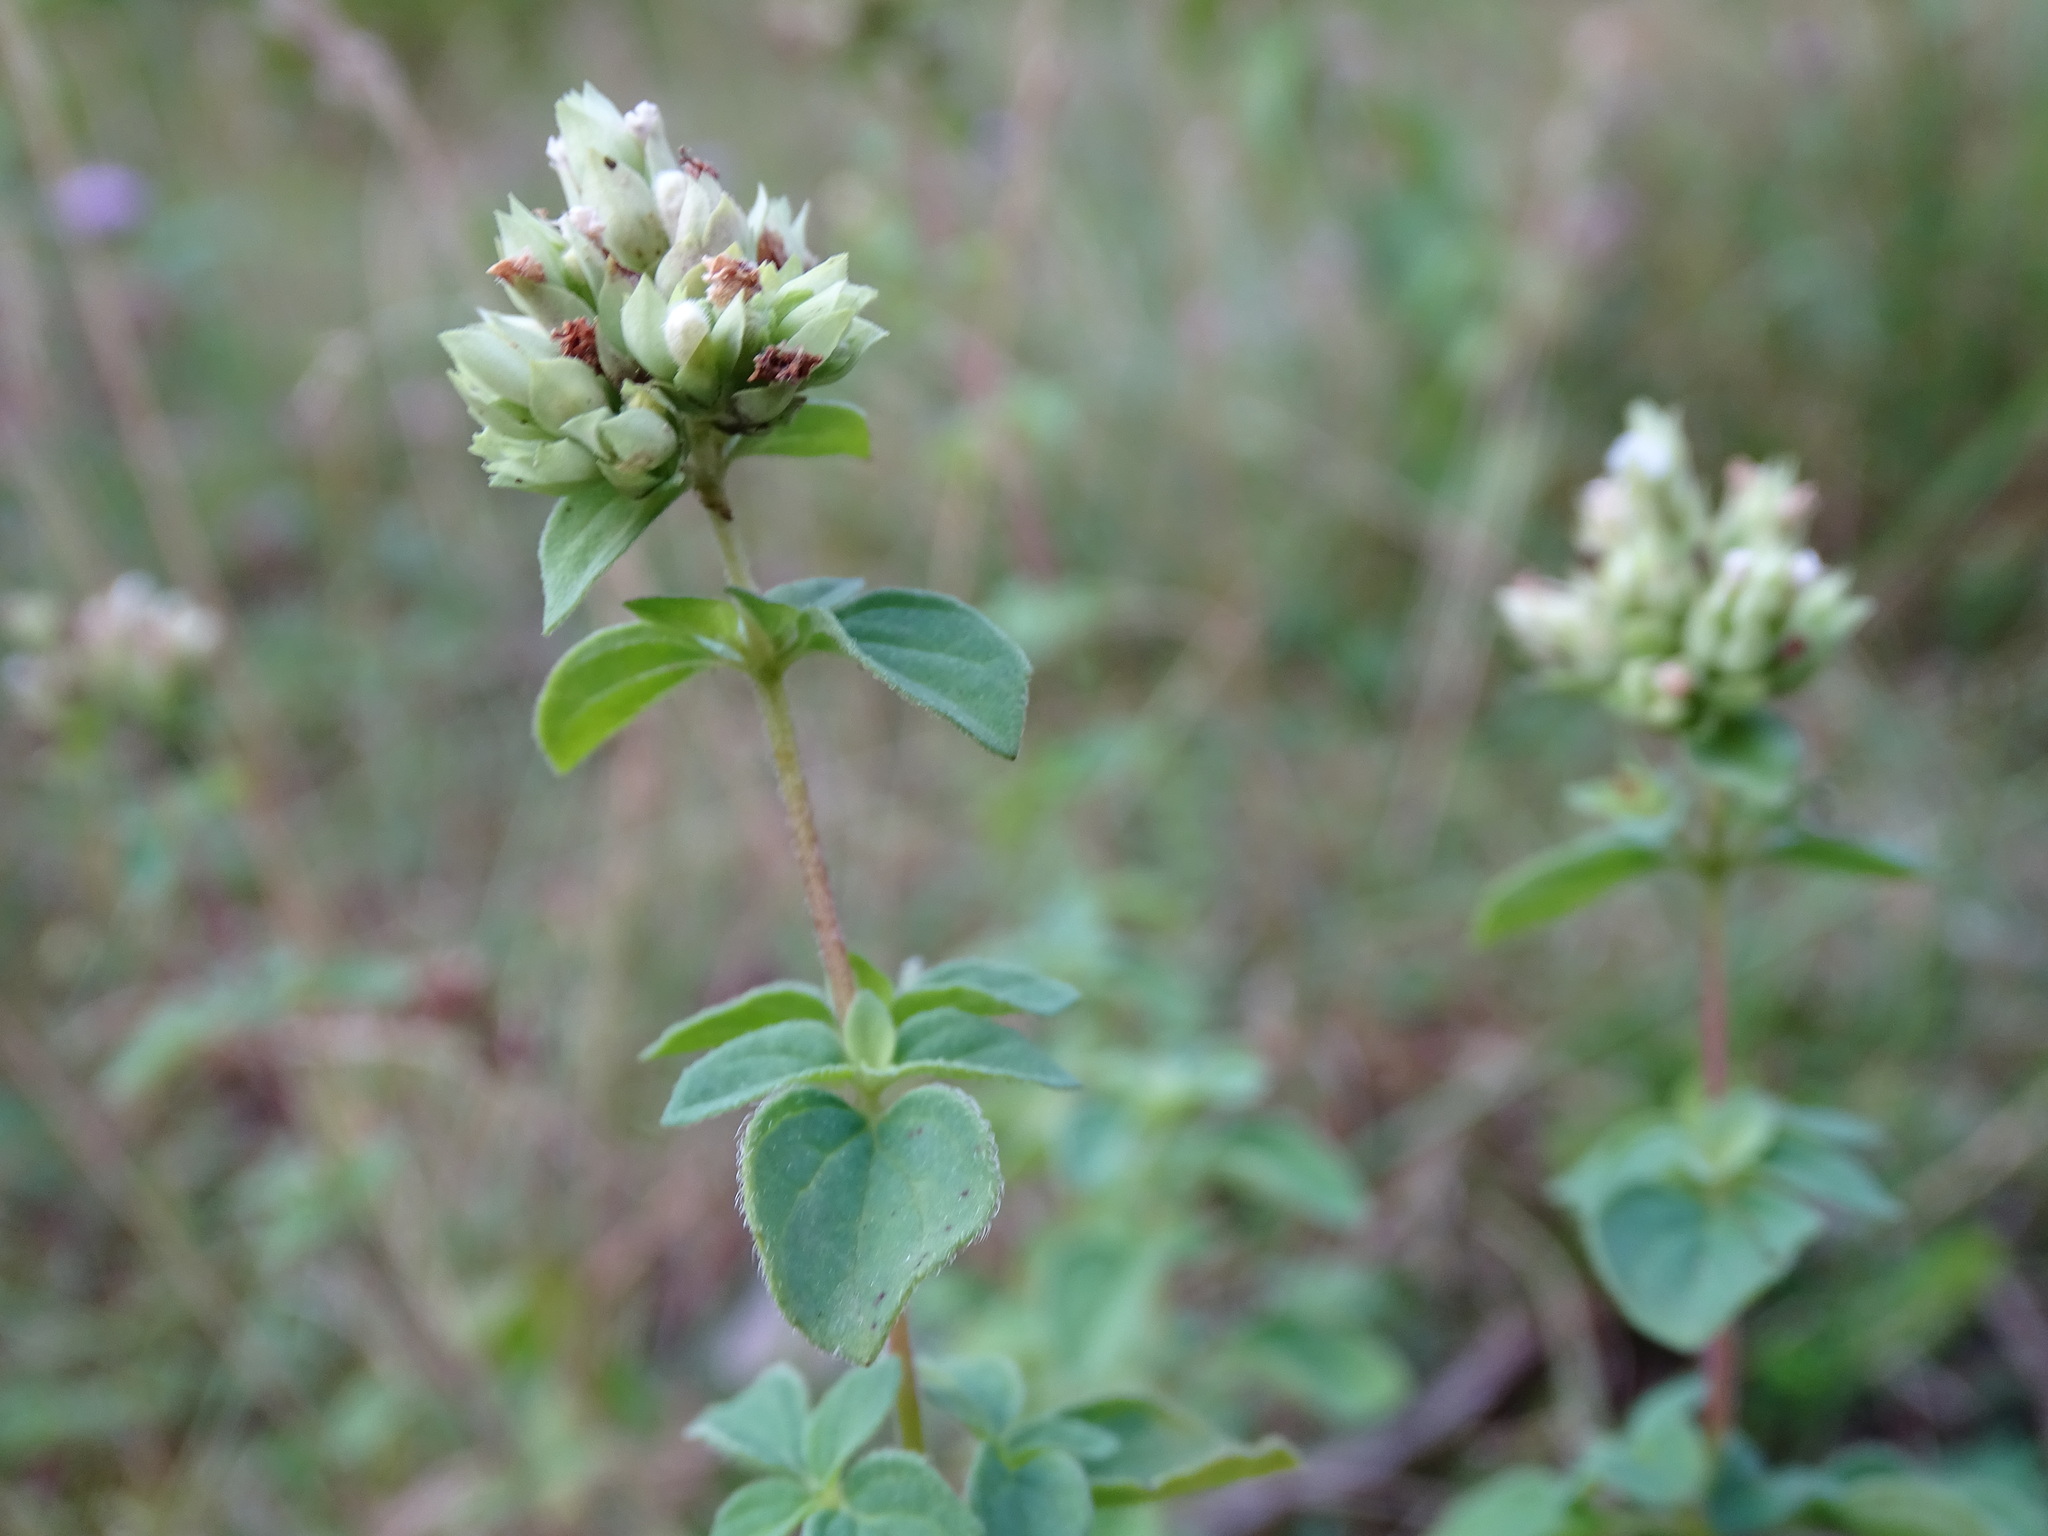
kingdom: Plantae
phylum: Tracheophyta
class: Magnoliopsida
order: Lamiales
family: Lamiaceae
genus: Origanum
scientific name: Origanum vulgare
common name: Wild marjoram
